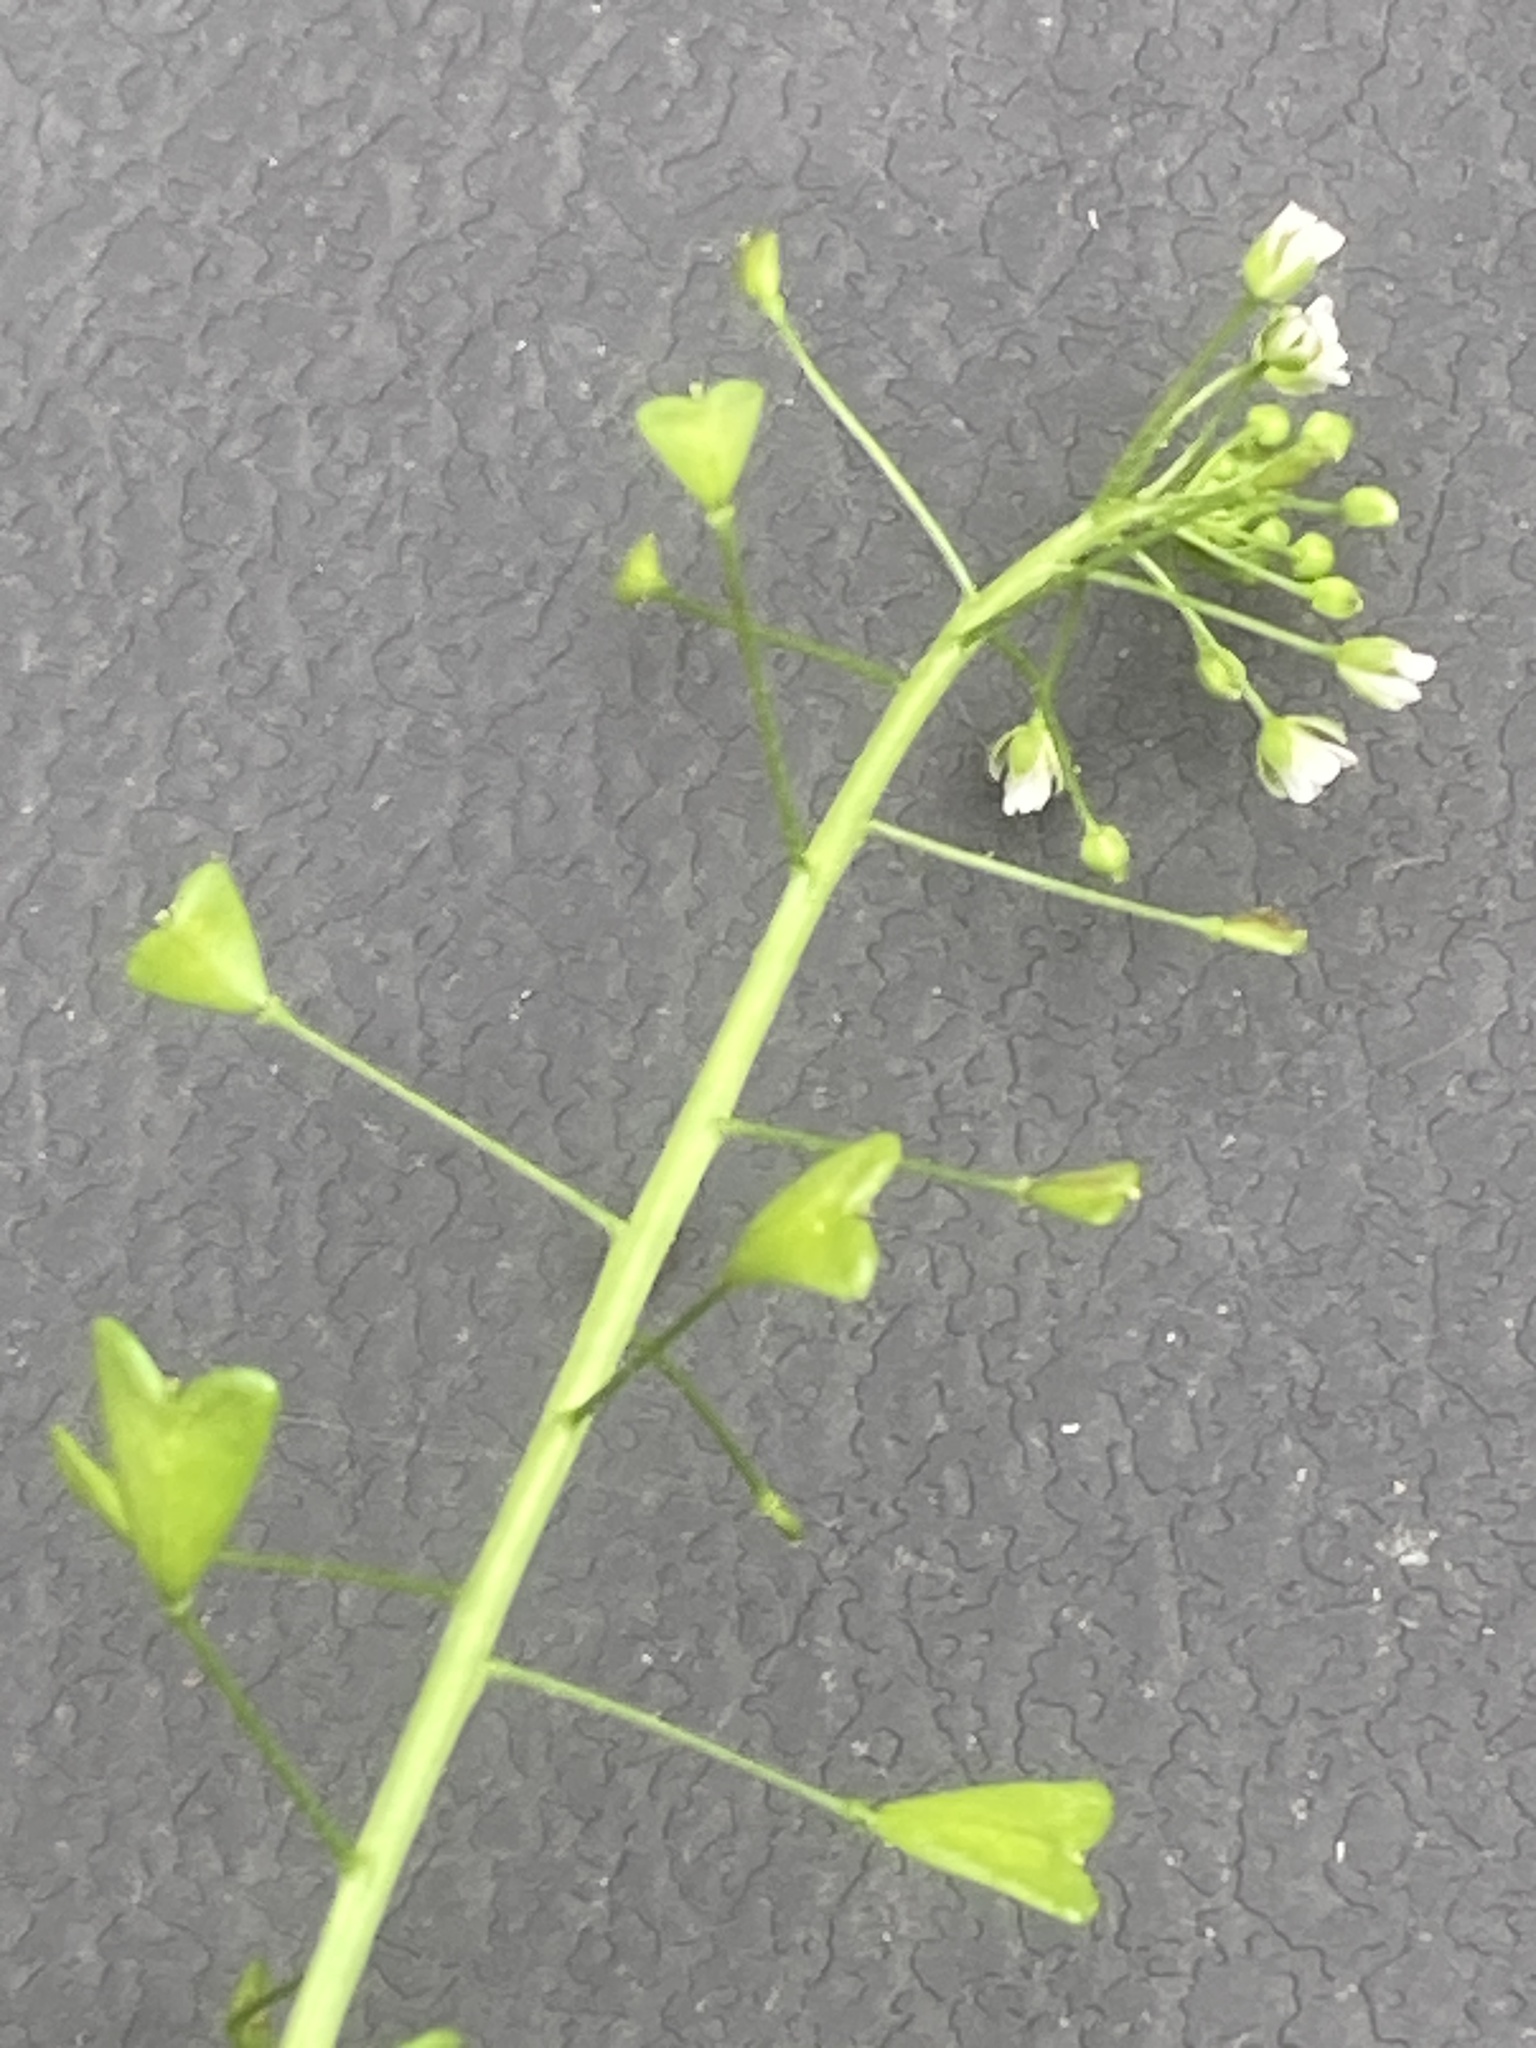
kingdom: Plantae
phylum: Tracheophyta
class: Magnoliopsida
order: Brassicales
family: Brassicaceae
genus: Capsella
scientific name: Capsella bursa-pastoris
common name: Shepherd's purse
